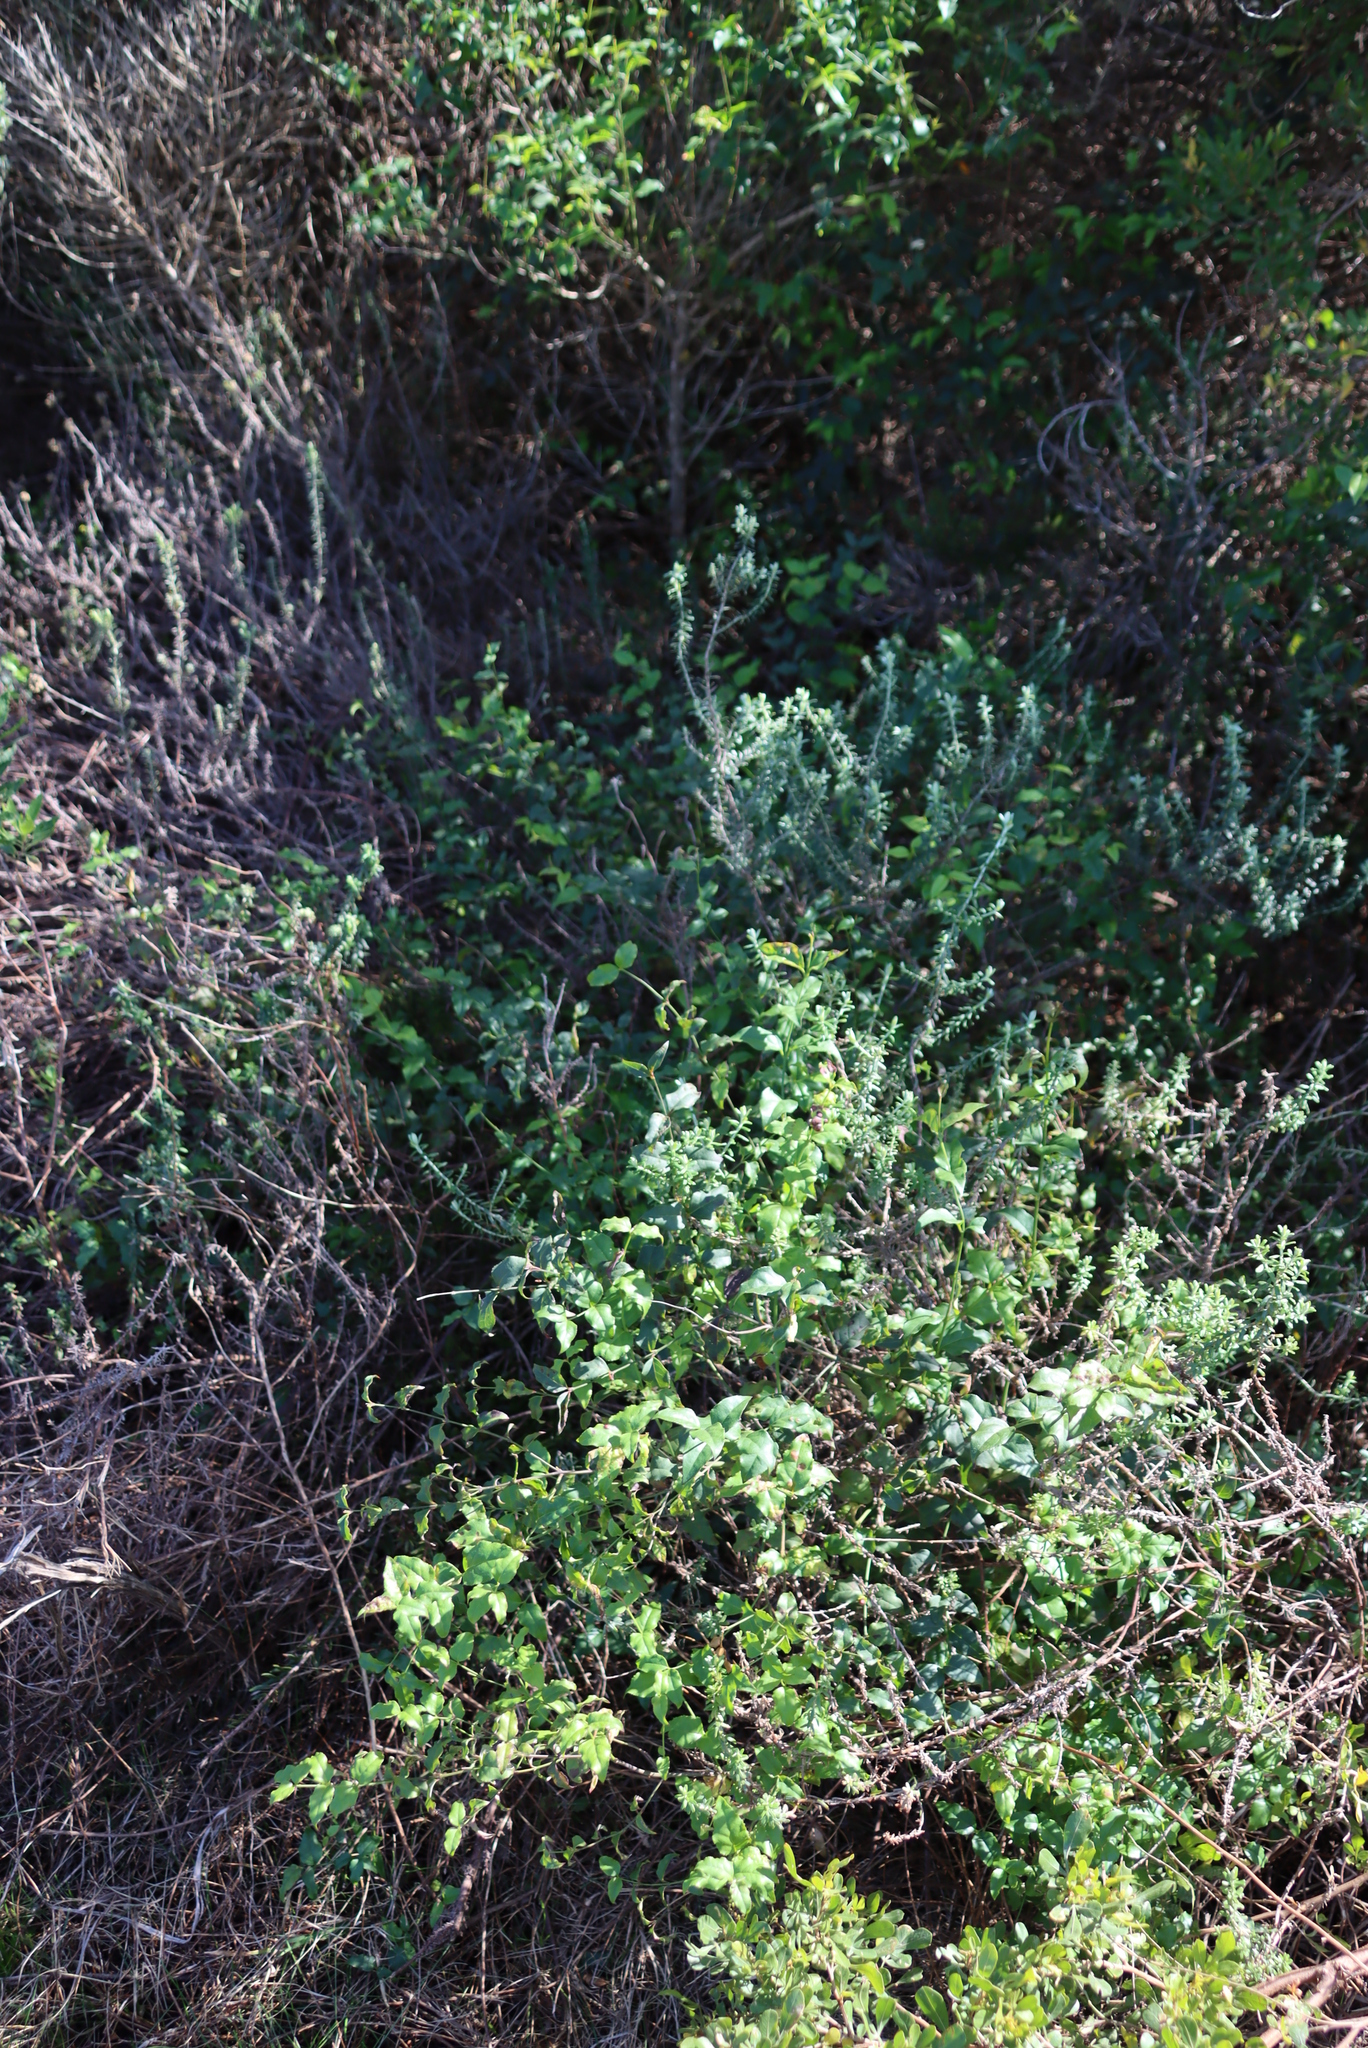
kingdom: Plantae
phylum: Tracheophyta
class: Magnoliopsida
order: Asterales
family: Asteraceae
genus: Helichrysum
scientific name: Helichrysum cymosum
